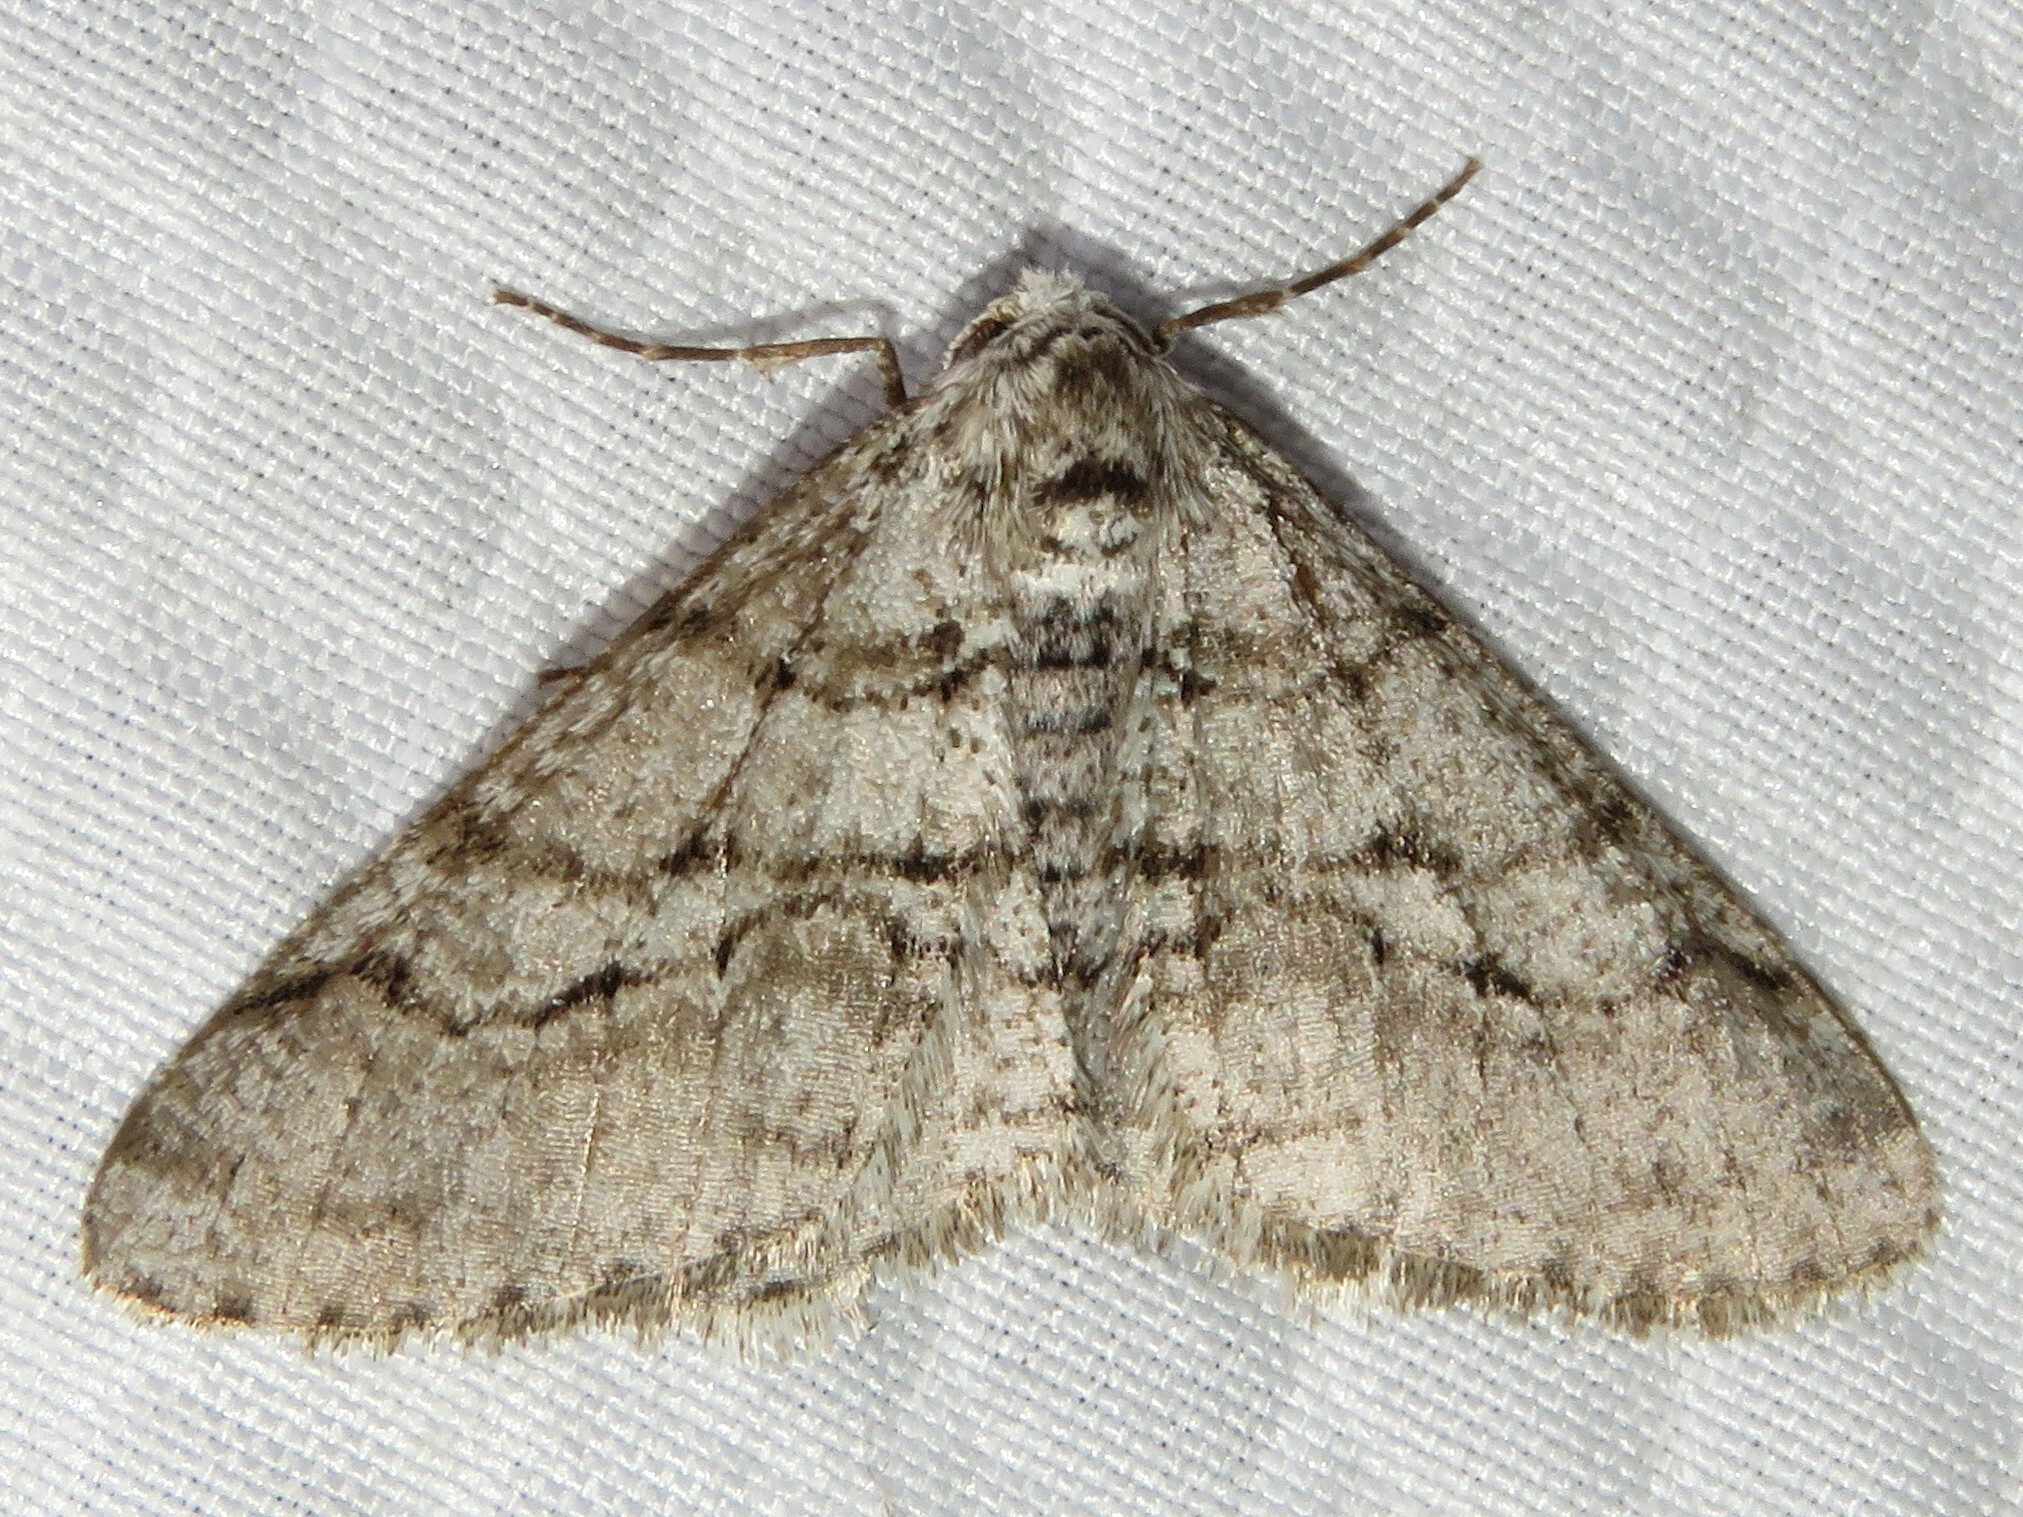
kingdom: Animalia
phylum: Arthropoda
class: Insecta
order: Lepidoptera
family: Geometridae
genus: Phigalia
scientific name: Phigalia titea
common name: Spiny looper
